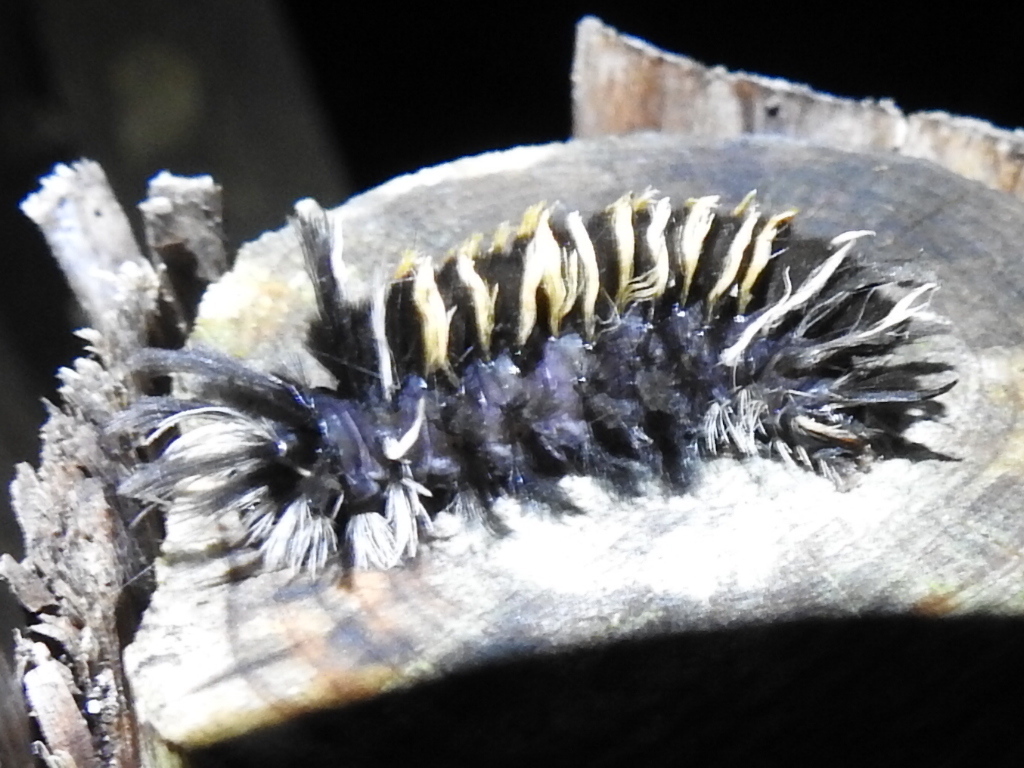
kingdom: Animalia
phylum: Arthropoda
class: Insecta
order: Lepidoptera
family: Erebidae
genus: Euchaetes
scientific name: Euchaetes egle
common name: Milkweed tussock moth
